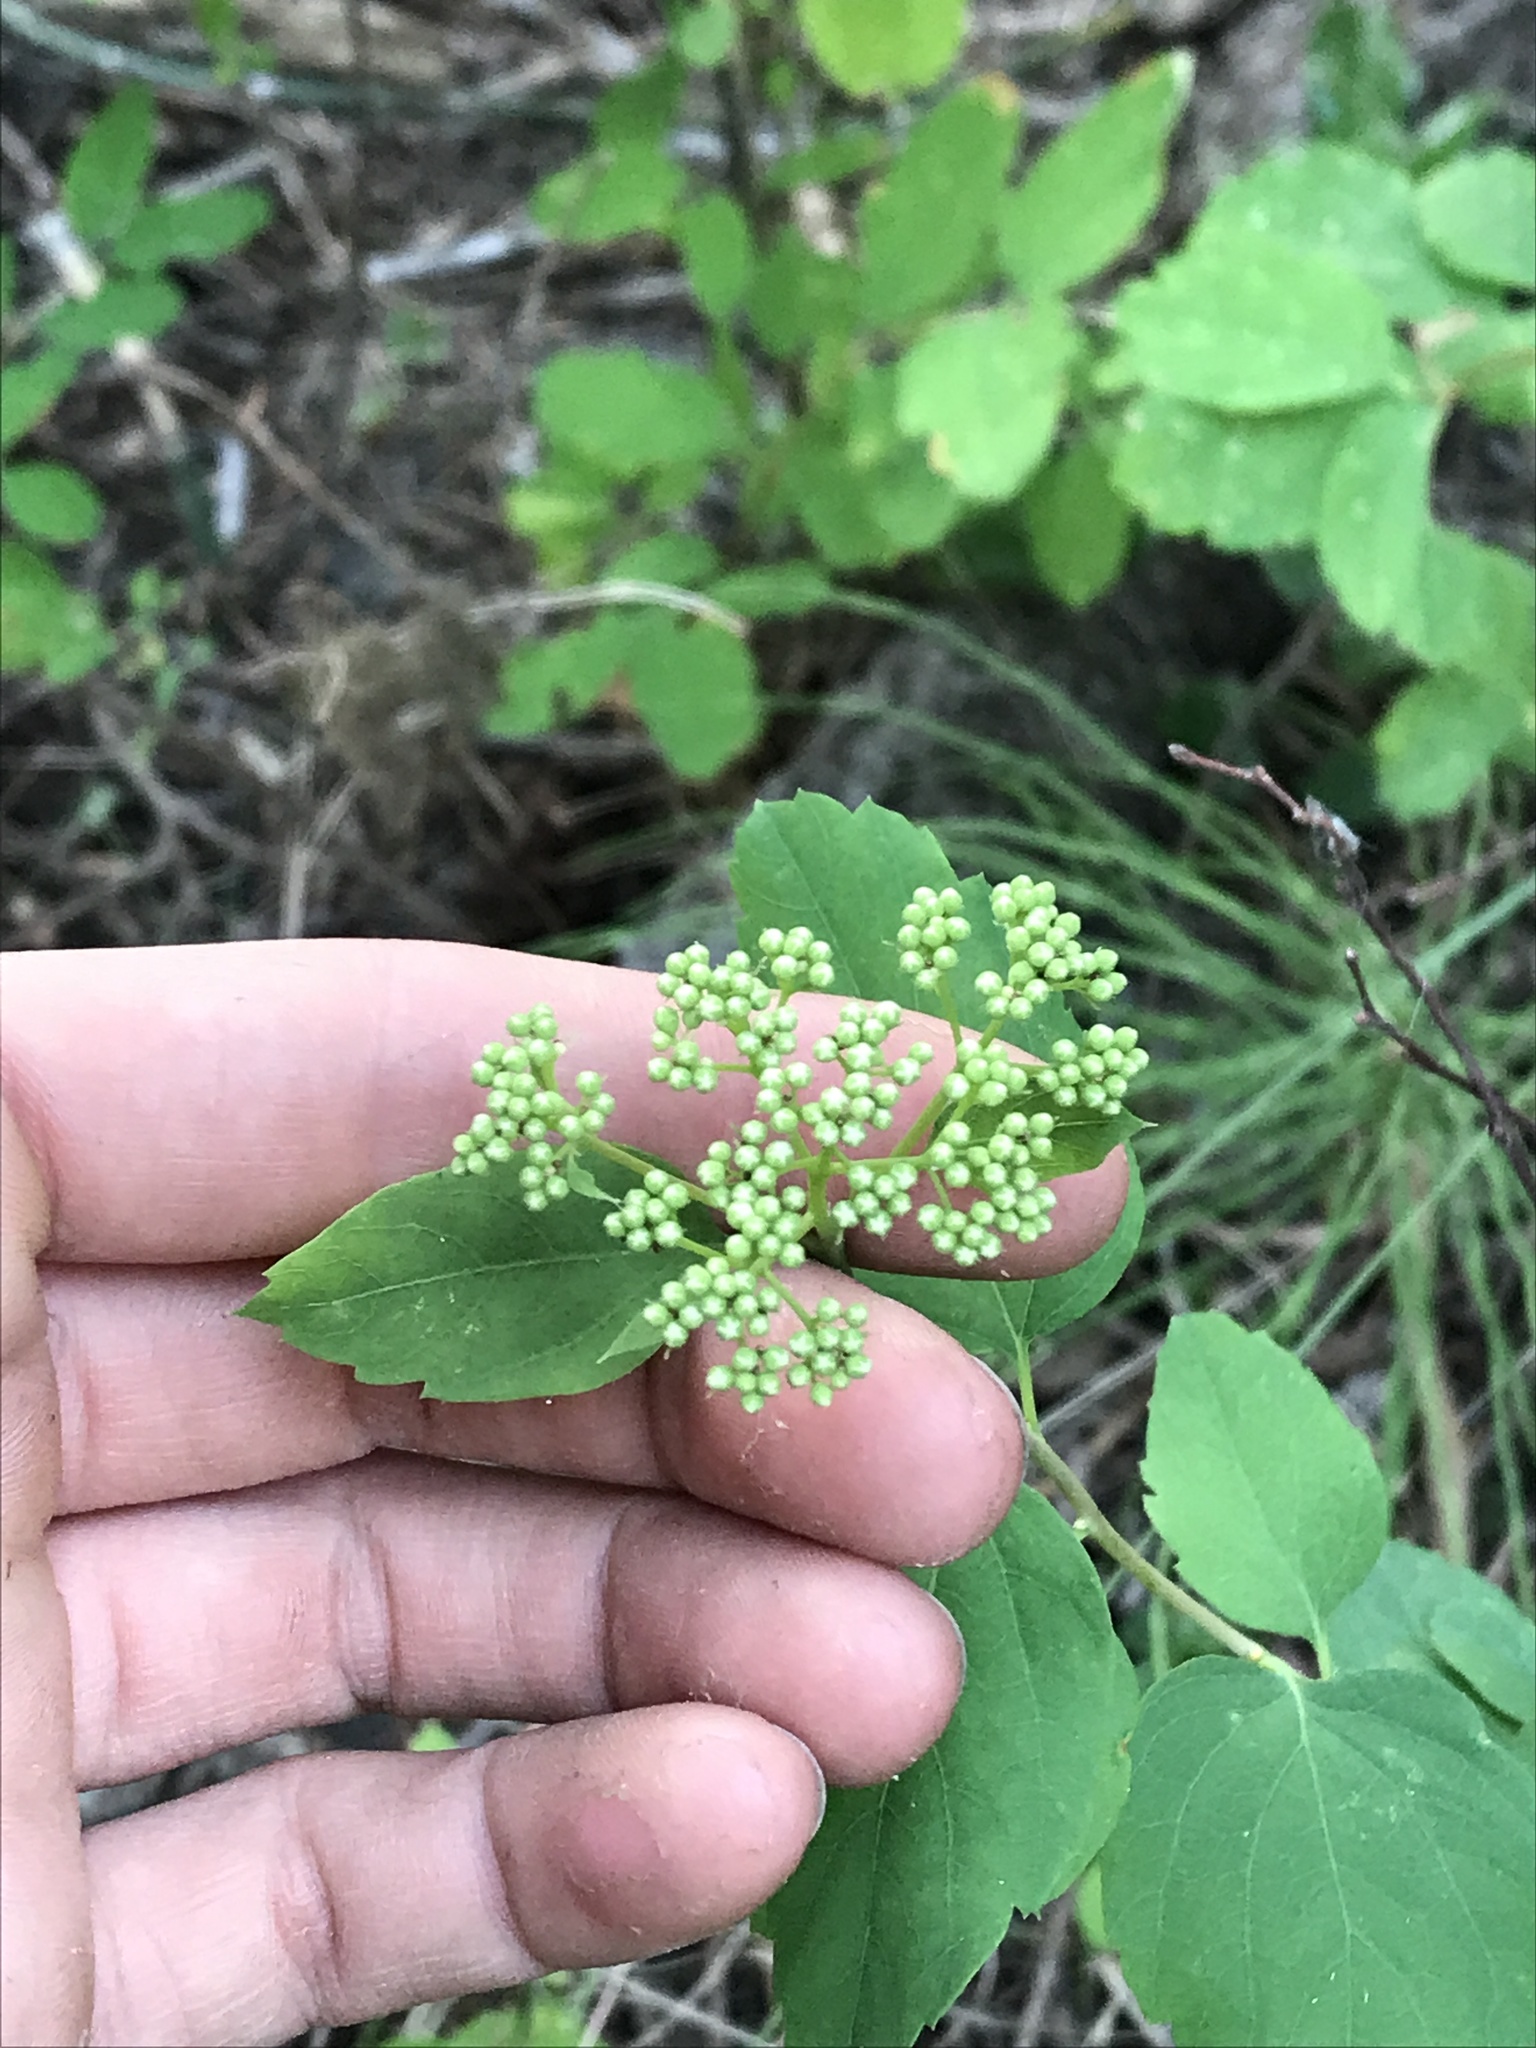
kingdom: Plantae
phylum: Tracheophyta
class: Magnoliopsida
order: Rosales
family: Rosaceae
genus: Spiraea
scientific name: Spiraea lucida
